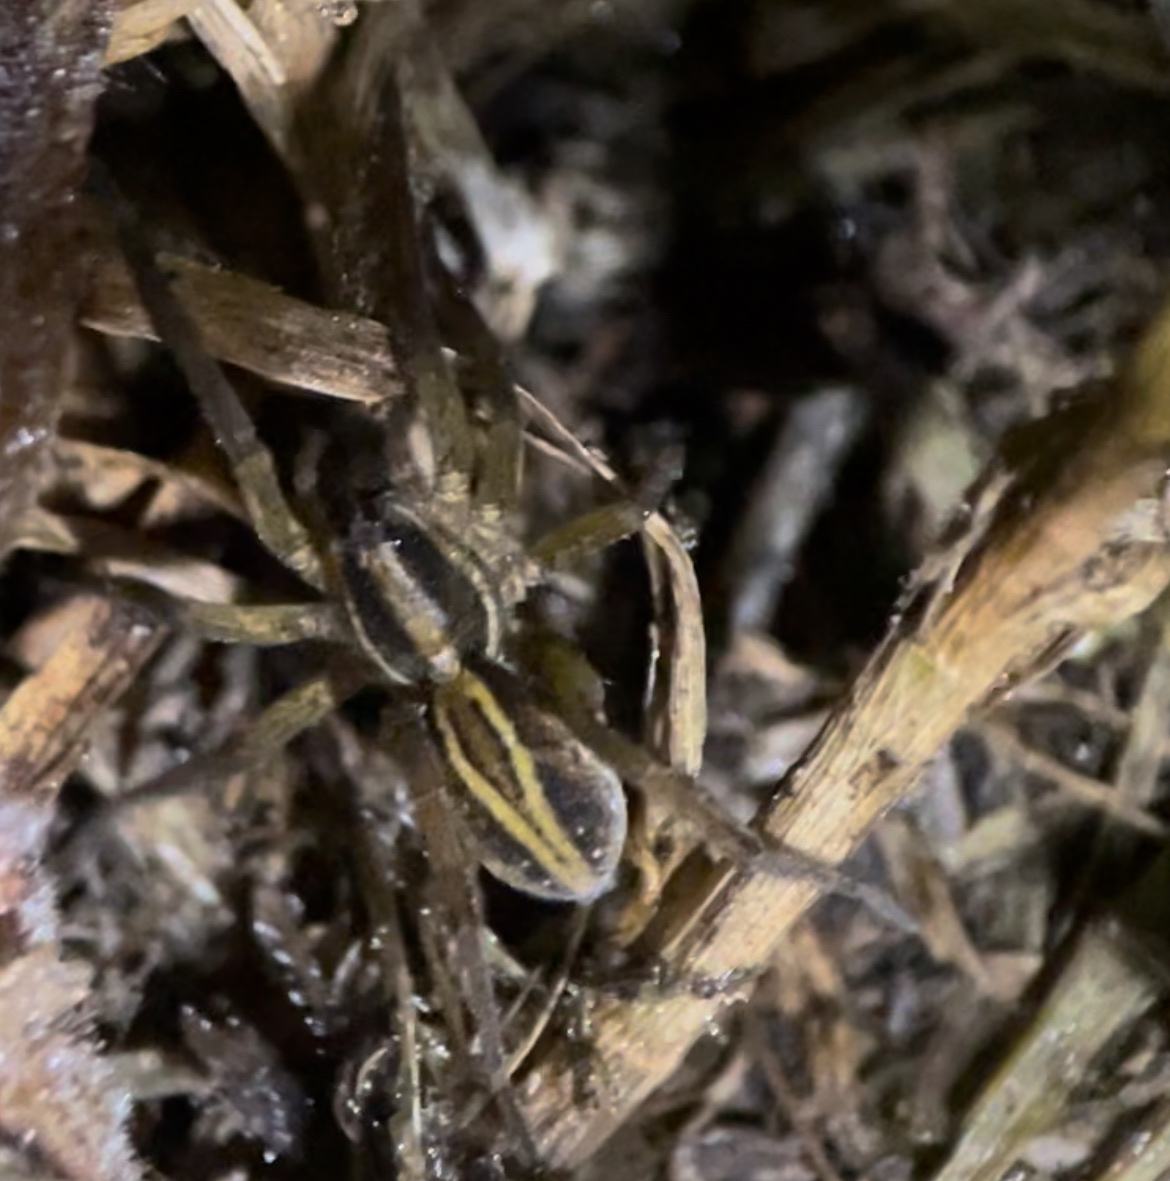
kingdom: Animalia
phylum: Arthropoda
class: Arachnida
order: Araneae
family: Lycosidae
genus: Venatrix
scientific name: Venatrix furcillata
